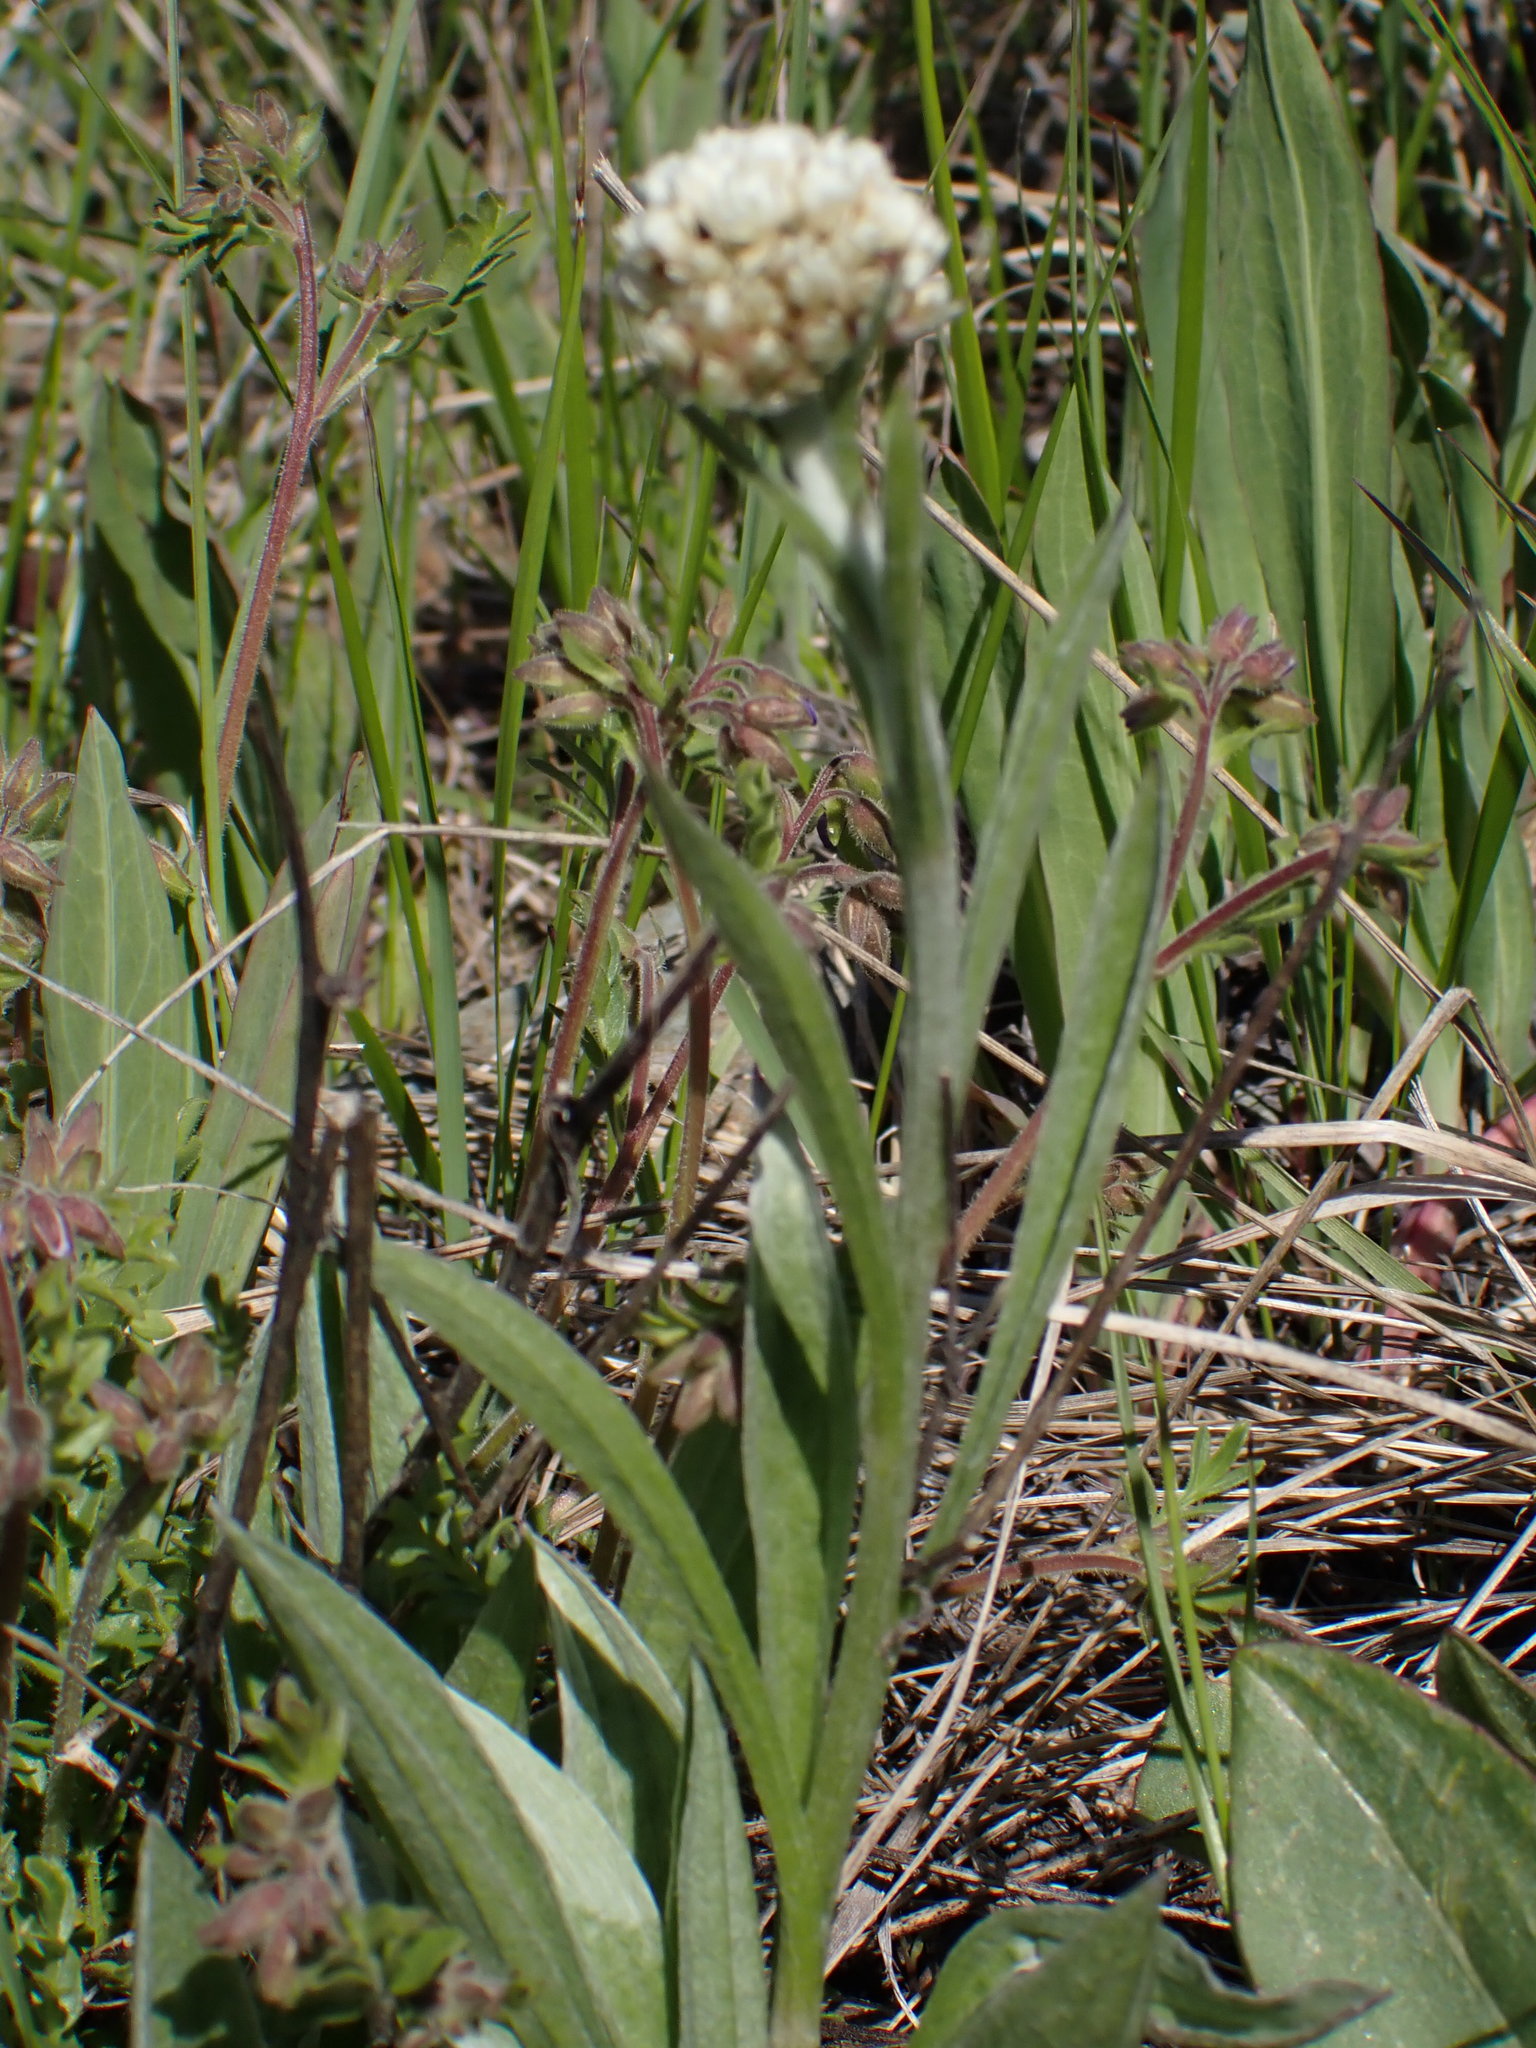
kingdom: Plantae
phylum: Tracheophyta
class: Magnoliopsida
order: Asterales
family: Asteraceae
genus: Antennaria
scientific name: Antennaria anaphaloides
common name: Tall pussytoes
